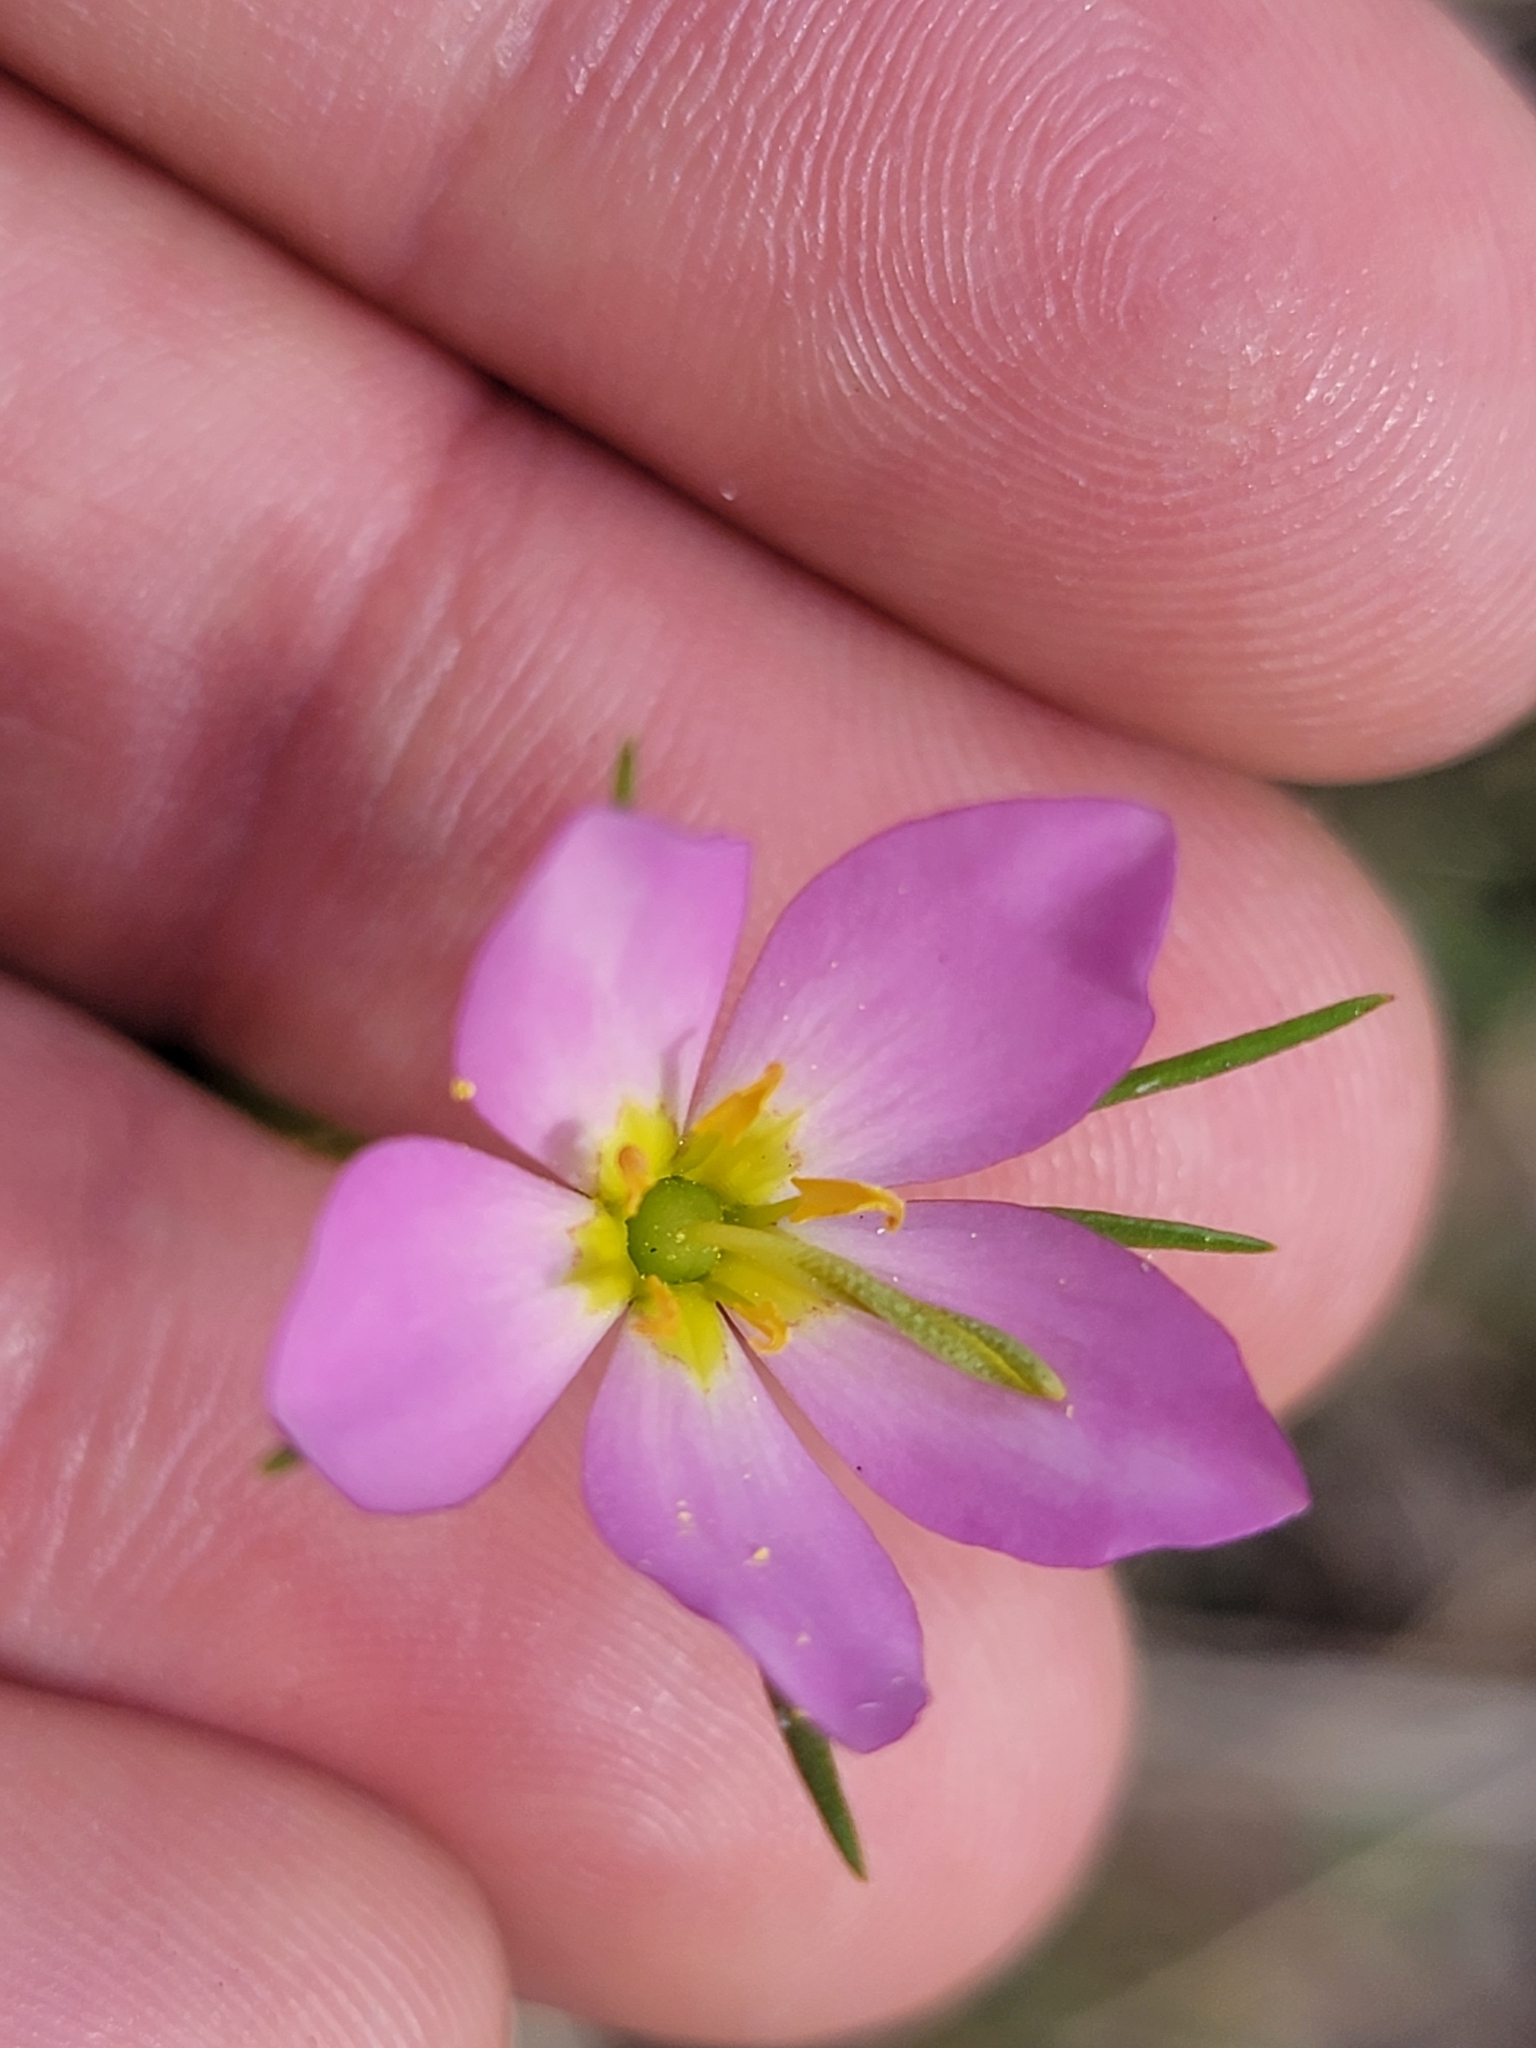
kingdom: Plantae
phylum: Tracheophyta
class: Magnoliopsida
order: Gentianales
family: Gentianaceae
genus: Sabatia
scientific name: Sabatia stellaris
